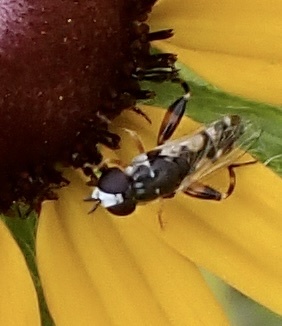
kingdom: Animalia
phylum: Arthropoda
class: Insecta
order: Diptera
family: Syrphidae
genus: Syritta
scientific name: Syritta flaviventris
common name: Syrphid fly
